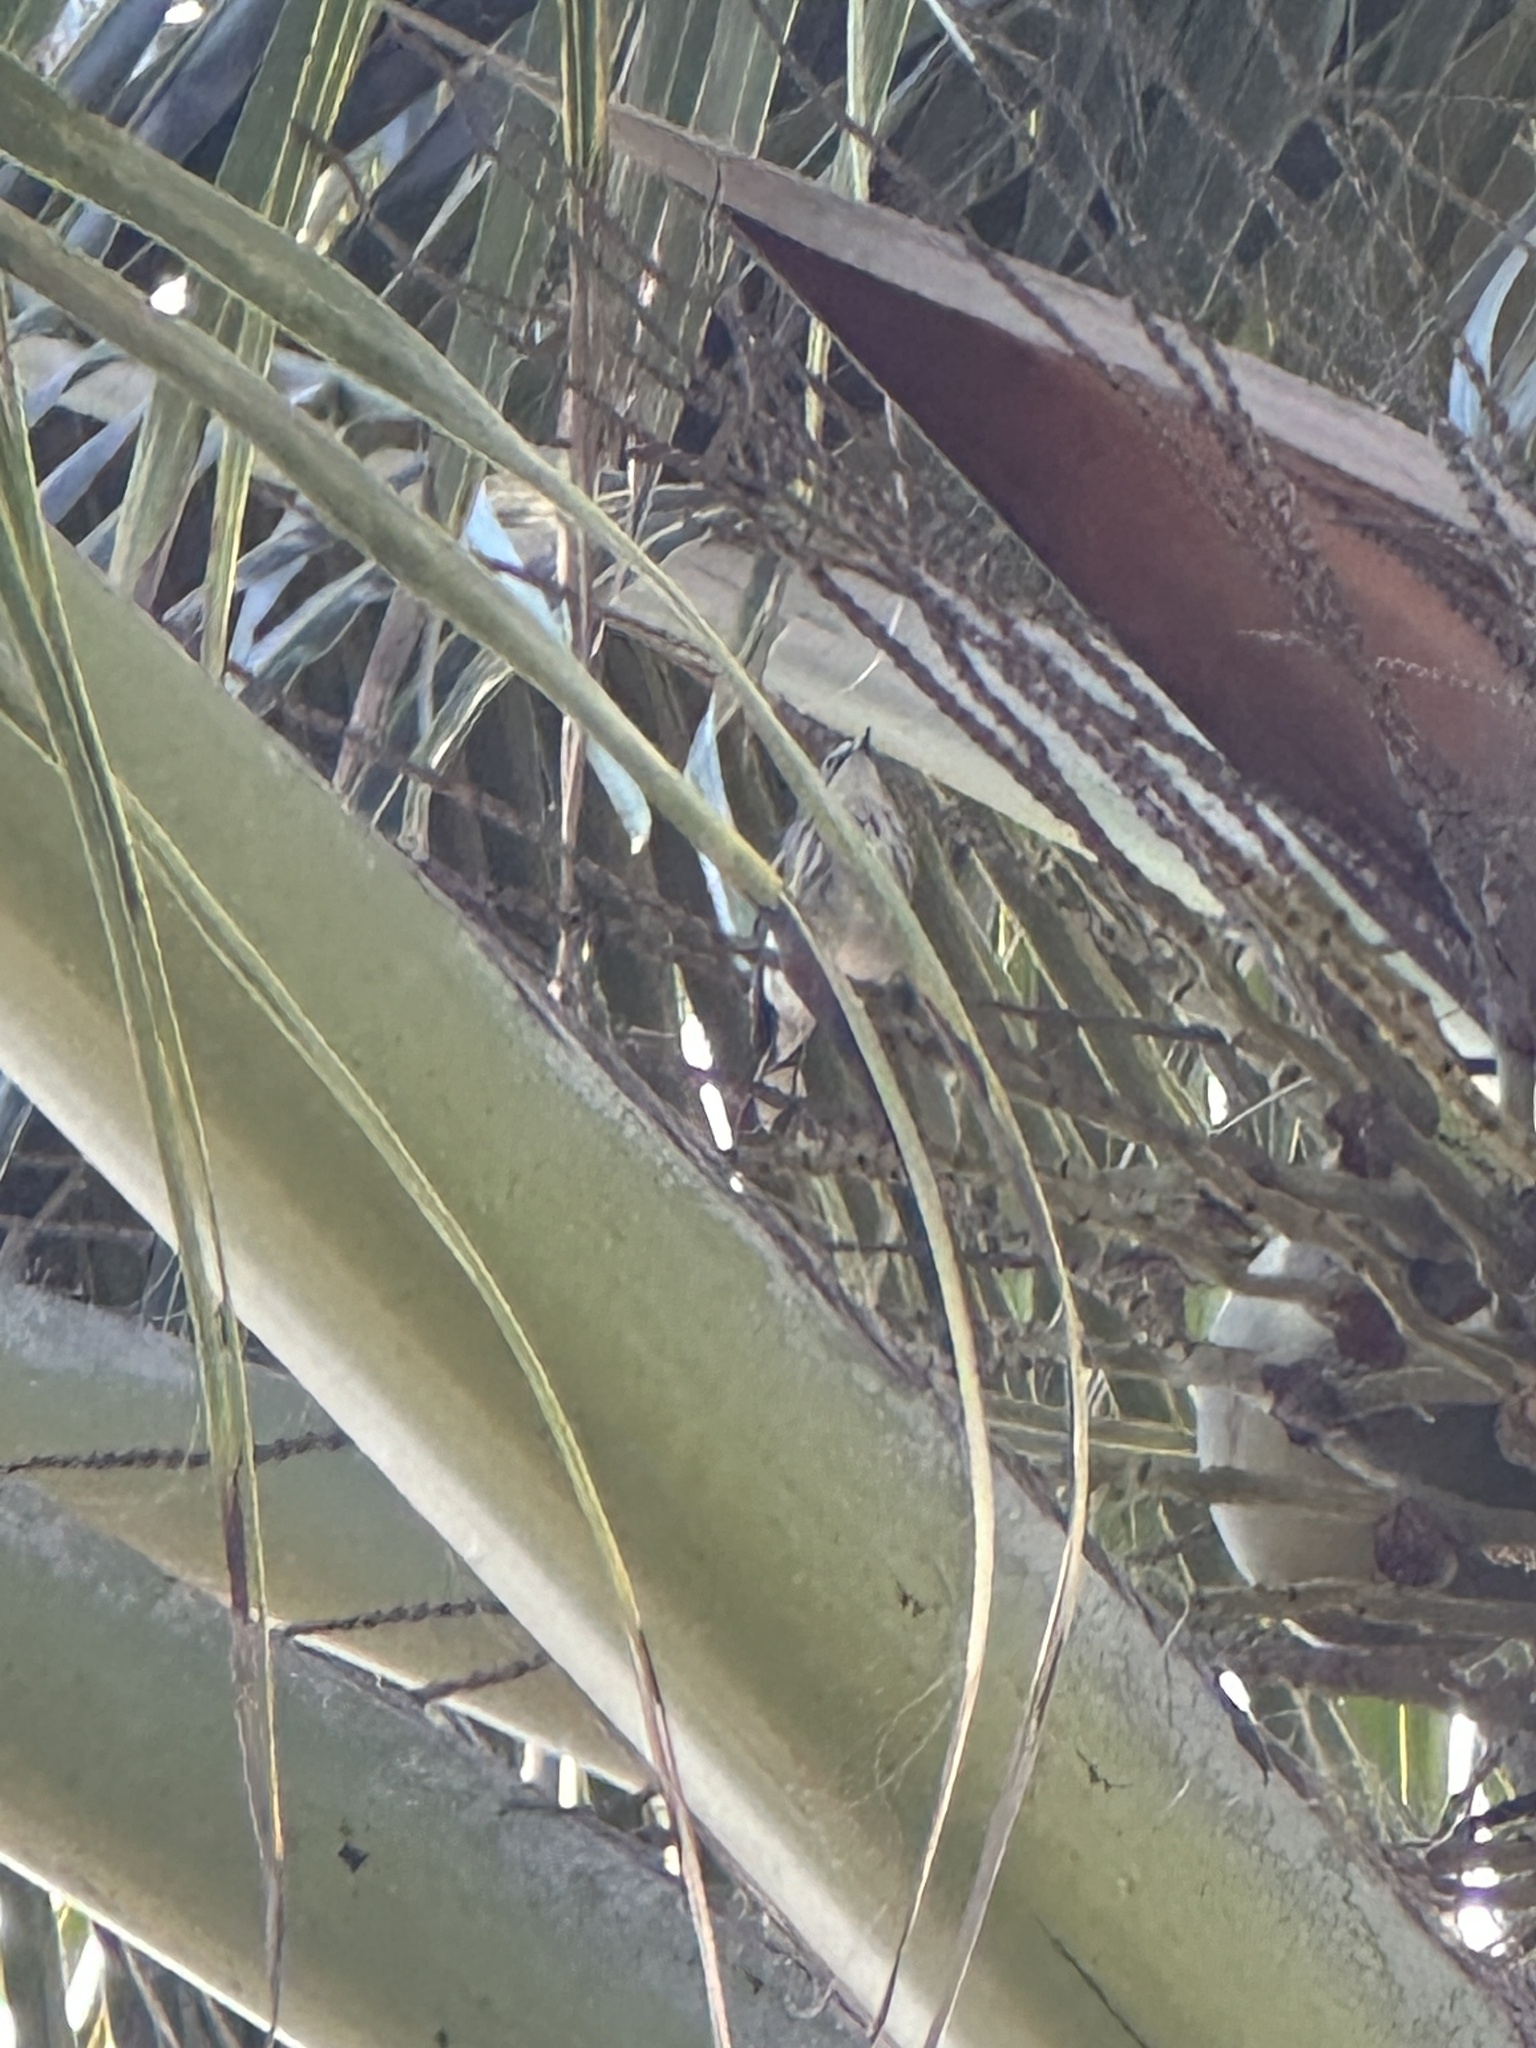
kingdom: Animalia
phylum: Chordata
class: Aves
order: Passeriformes
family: Parulidae
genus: Setophaga
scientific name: Setophaga coronata
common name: Myrtle warbler
